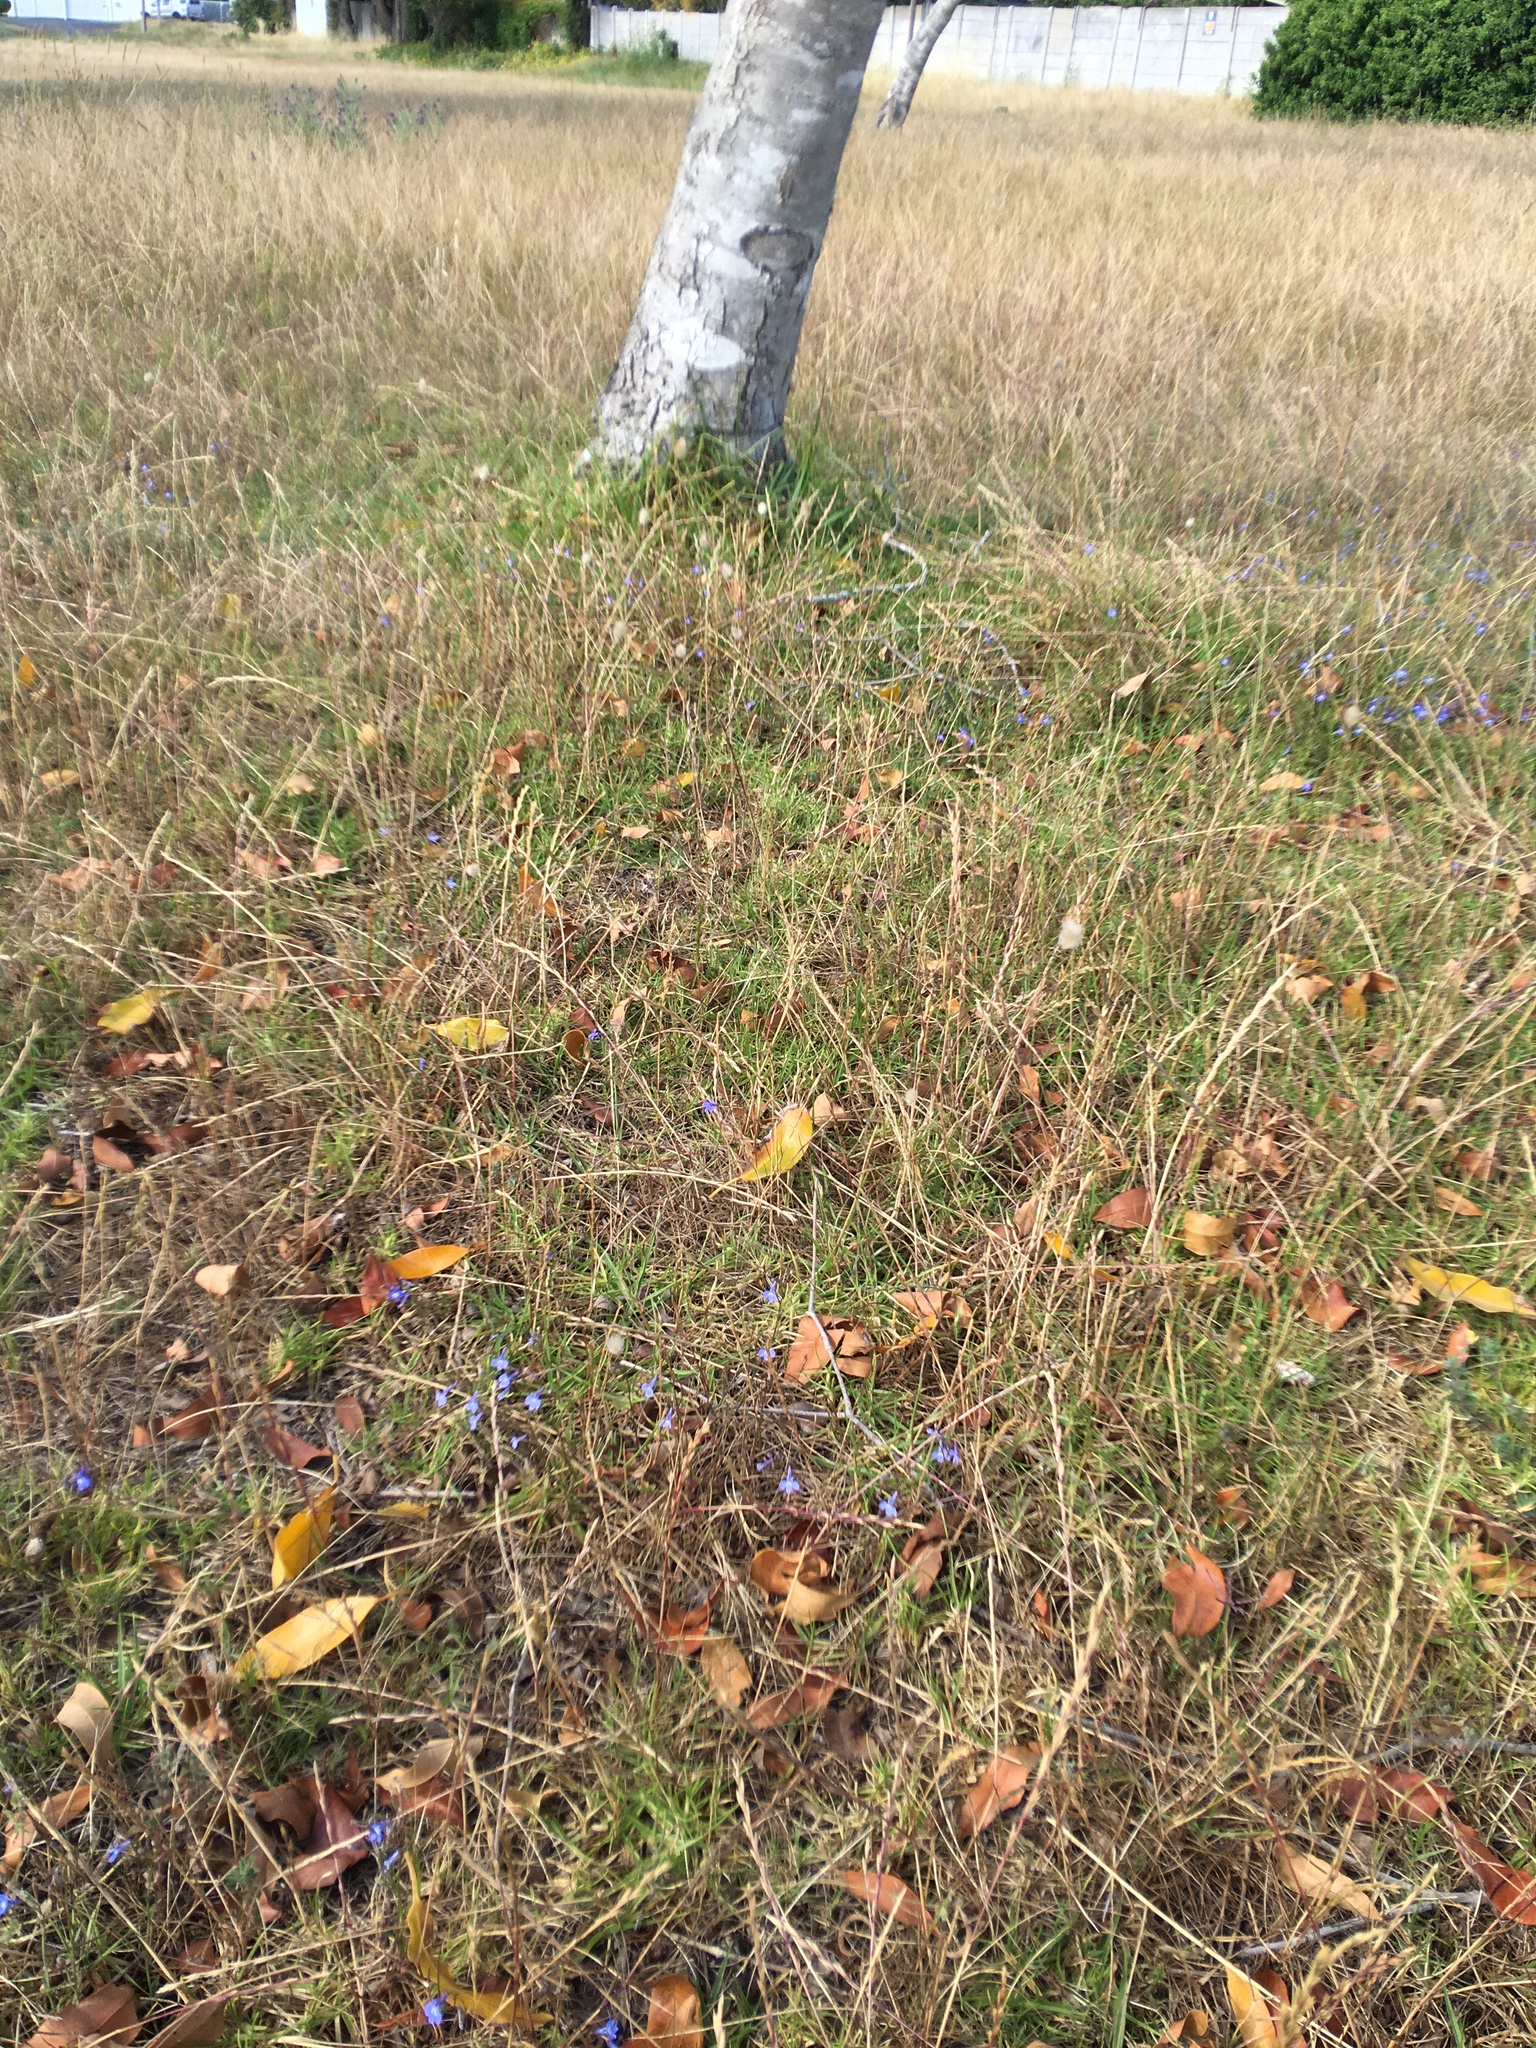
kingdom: Plantae
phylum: Tracheophyta
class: Magnoliopsida
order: Asterales
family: Campanulaceae
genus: Lobelia
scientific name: Lobelia erinus
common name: Edging lobelia
